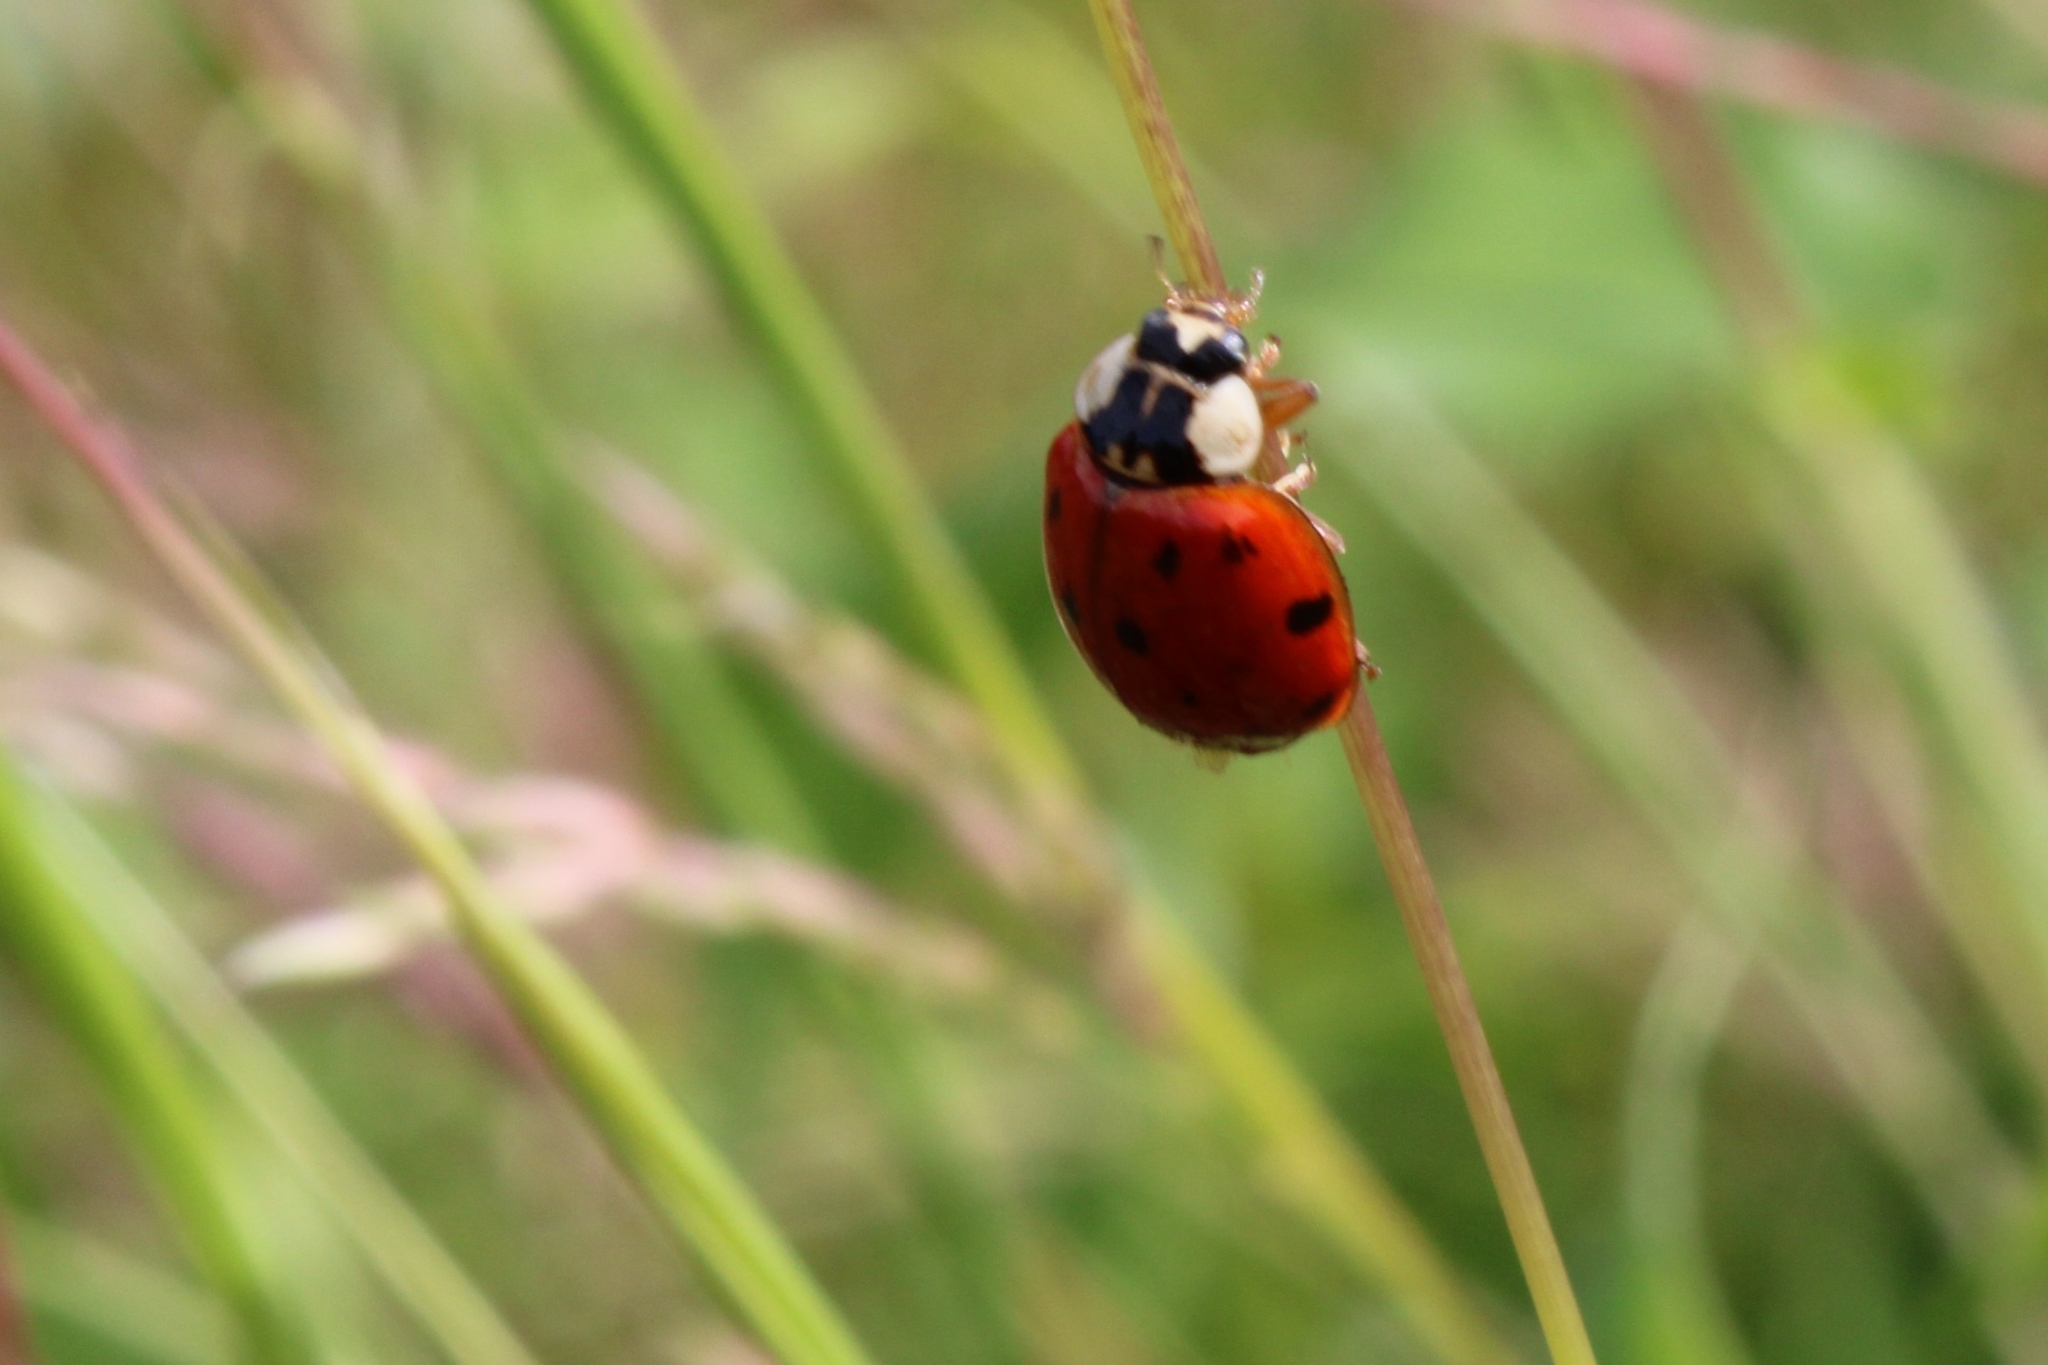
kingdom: Animalia
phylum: Arthropoda
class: Insecta
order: Coleoptera
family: Coccinellidae
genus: Harmonia
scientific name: Harmonia axyridis
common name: Harlequin ladybird
